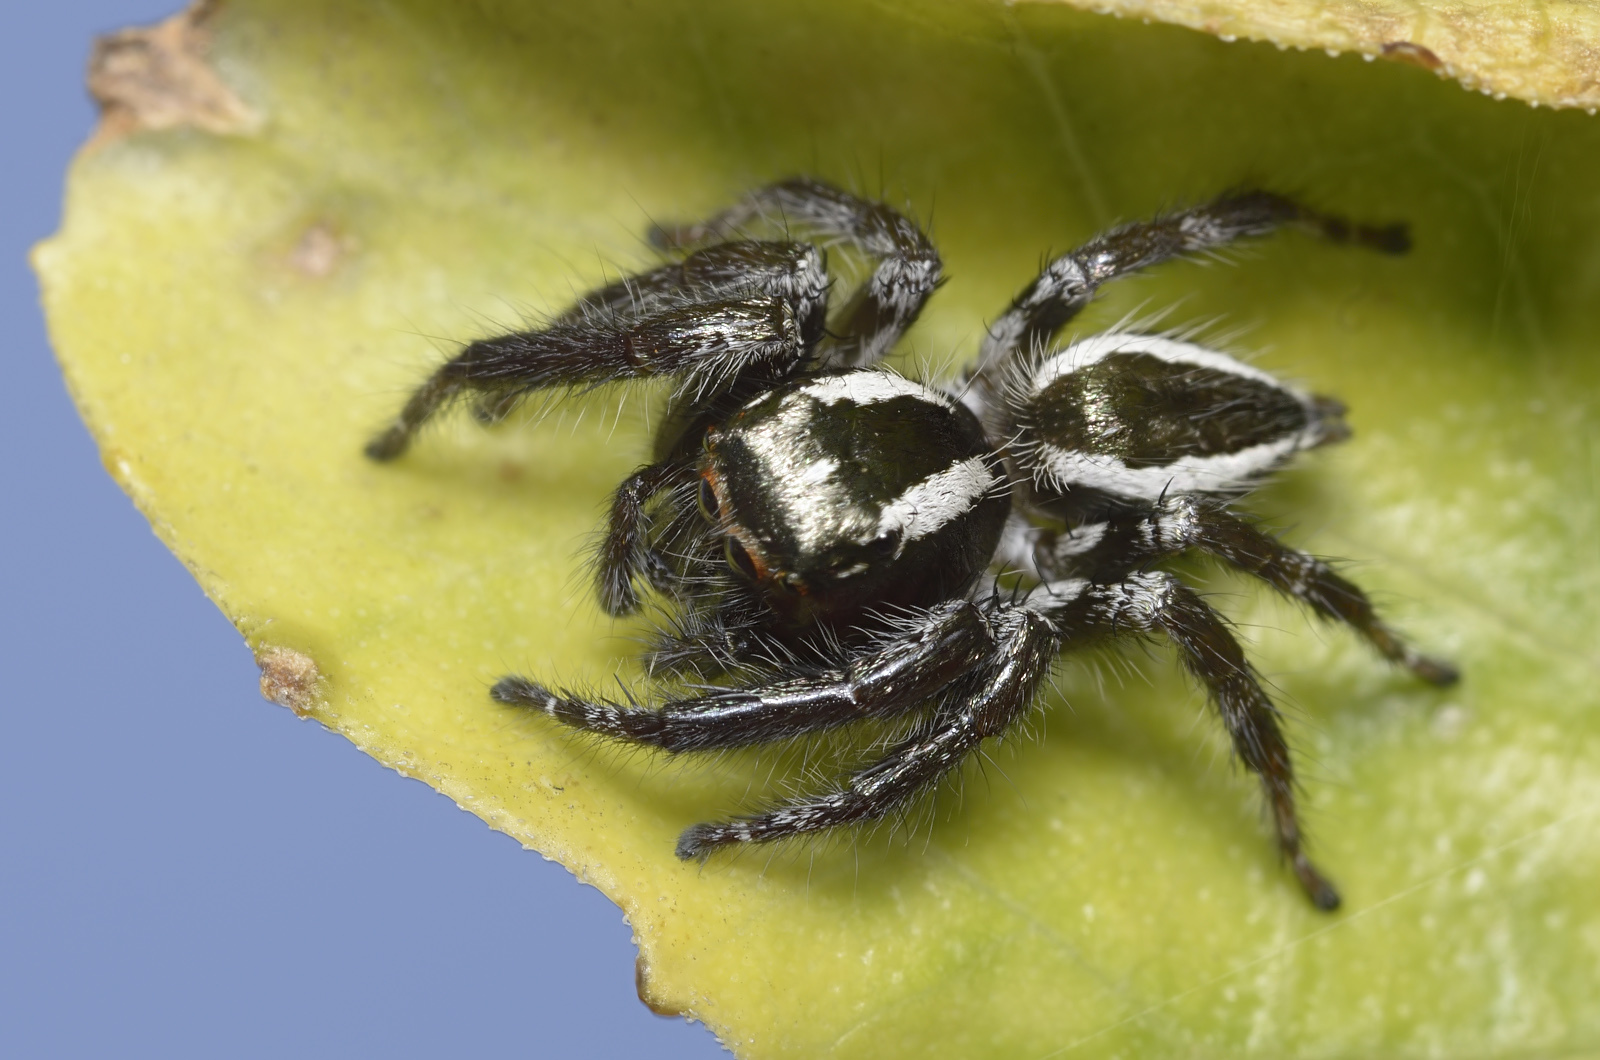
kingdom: Animalia
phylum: Arthropoda
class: Arachnida
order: Araneae
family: Salticidae
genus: Carrhotus
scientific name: Carrhotus viduus
